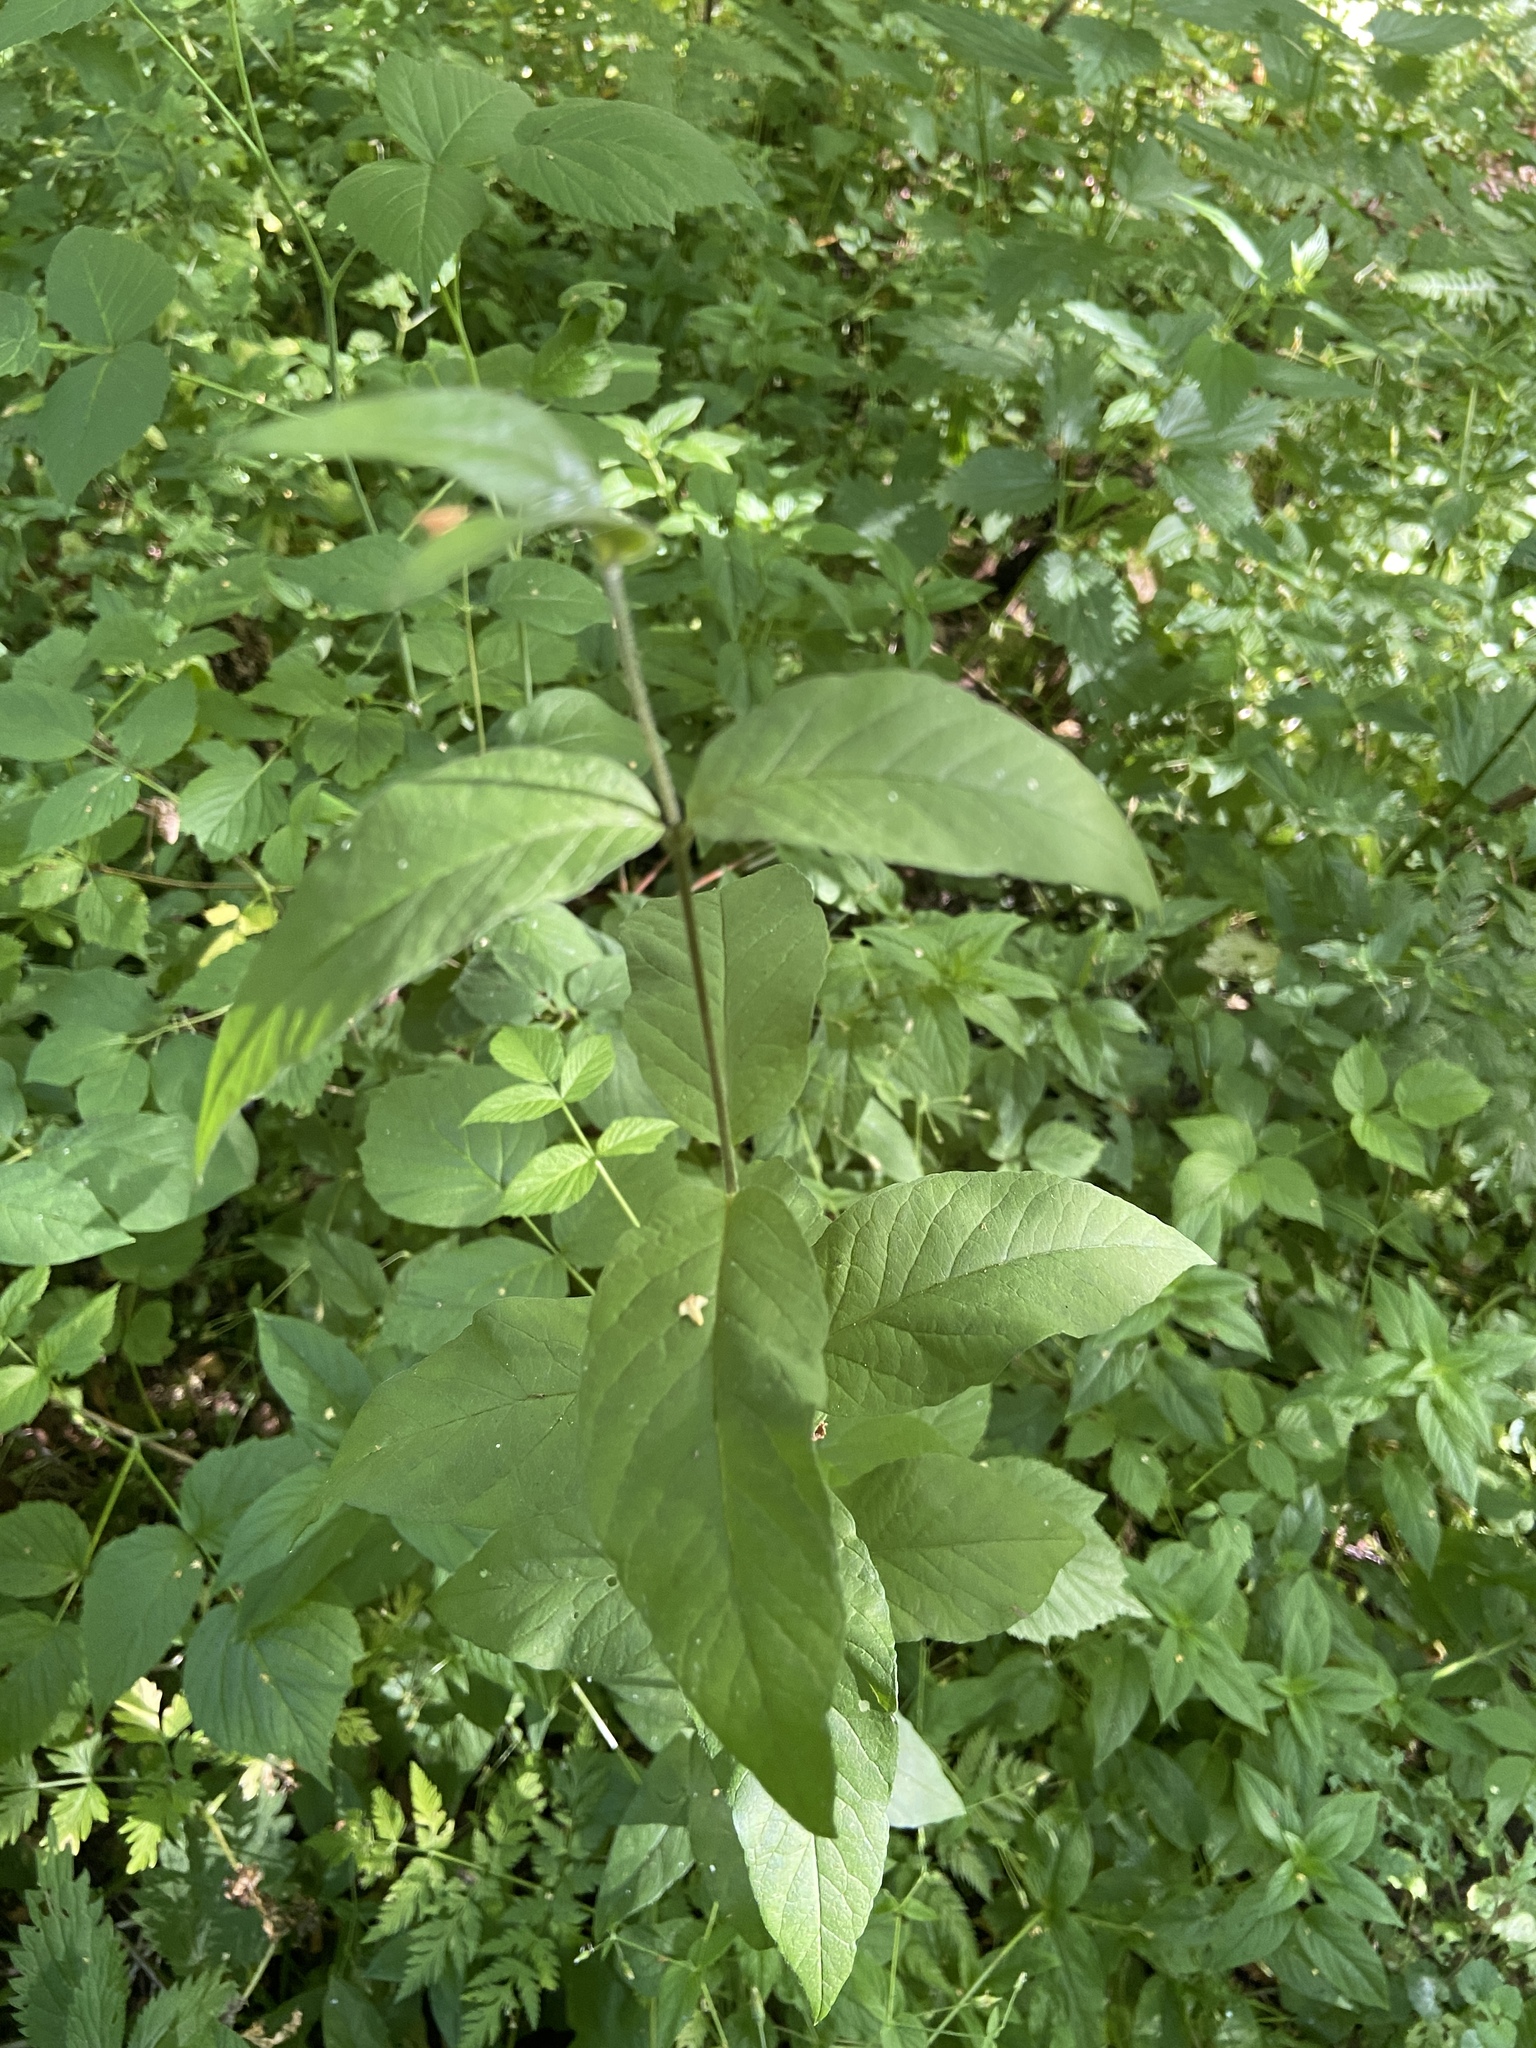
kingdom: Plantae
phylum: Tracheophyta
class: Magnoliopsida
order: Ericales
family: Primulaceae
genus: Lysimachia
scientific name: Lysimachia vulgaris
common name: Yellow loosestrife
